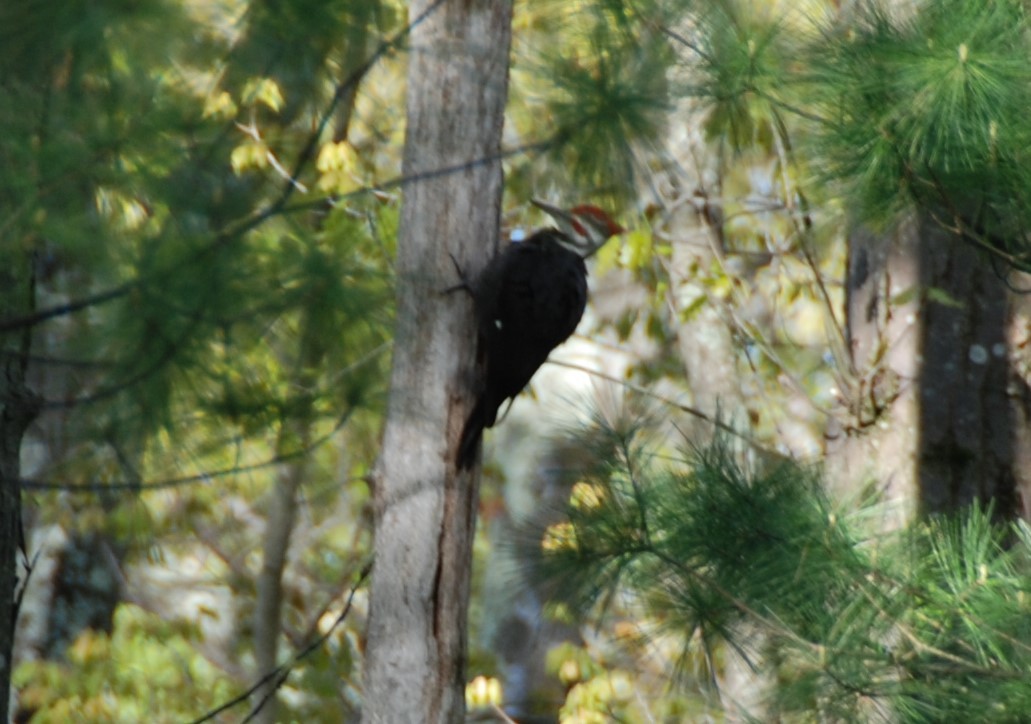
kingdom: Animalia
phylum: Chordata
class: Aves
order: Piciformes
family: Picidae
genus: Dryocopus
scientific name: Dryocopus pileatus
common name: Pileated woodpecker
